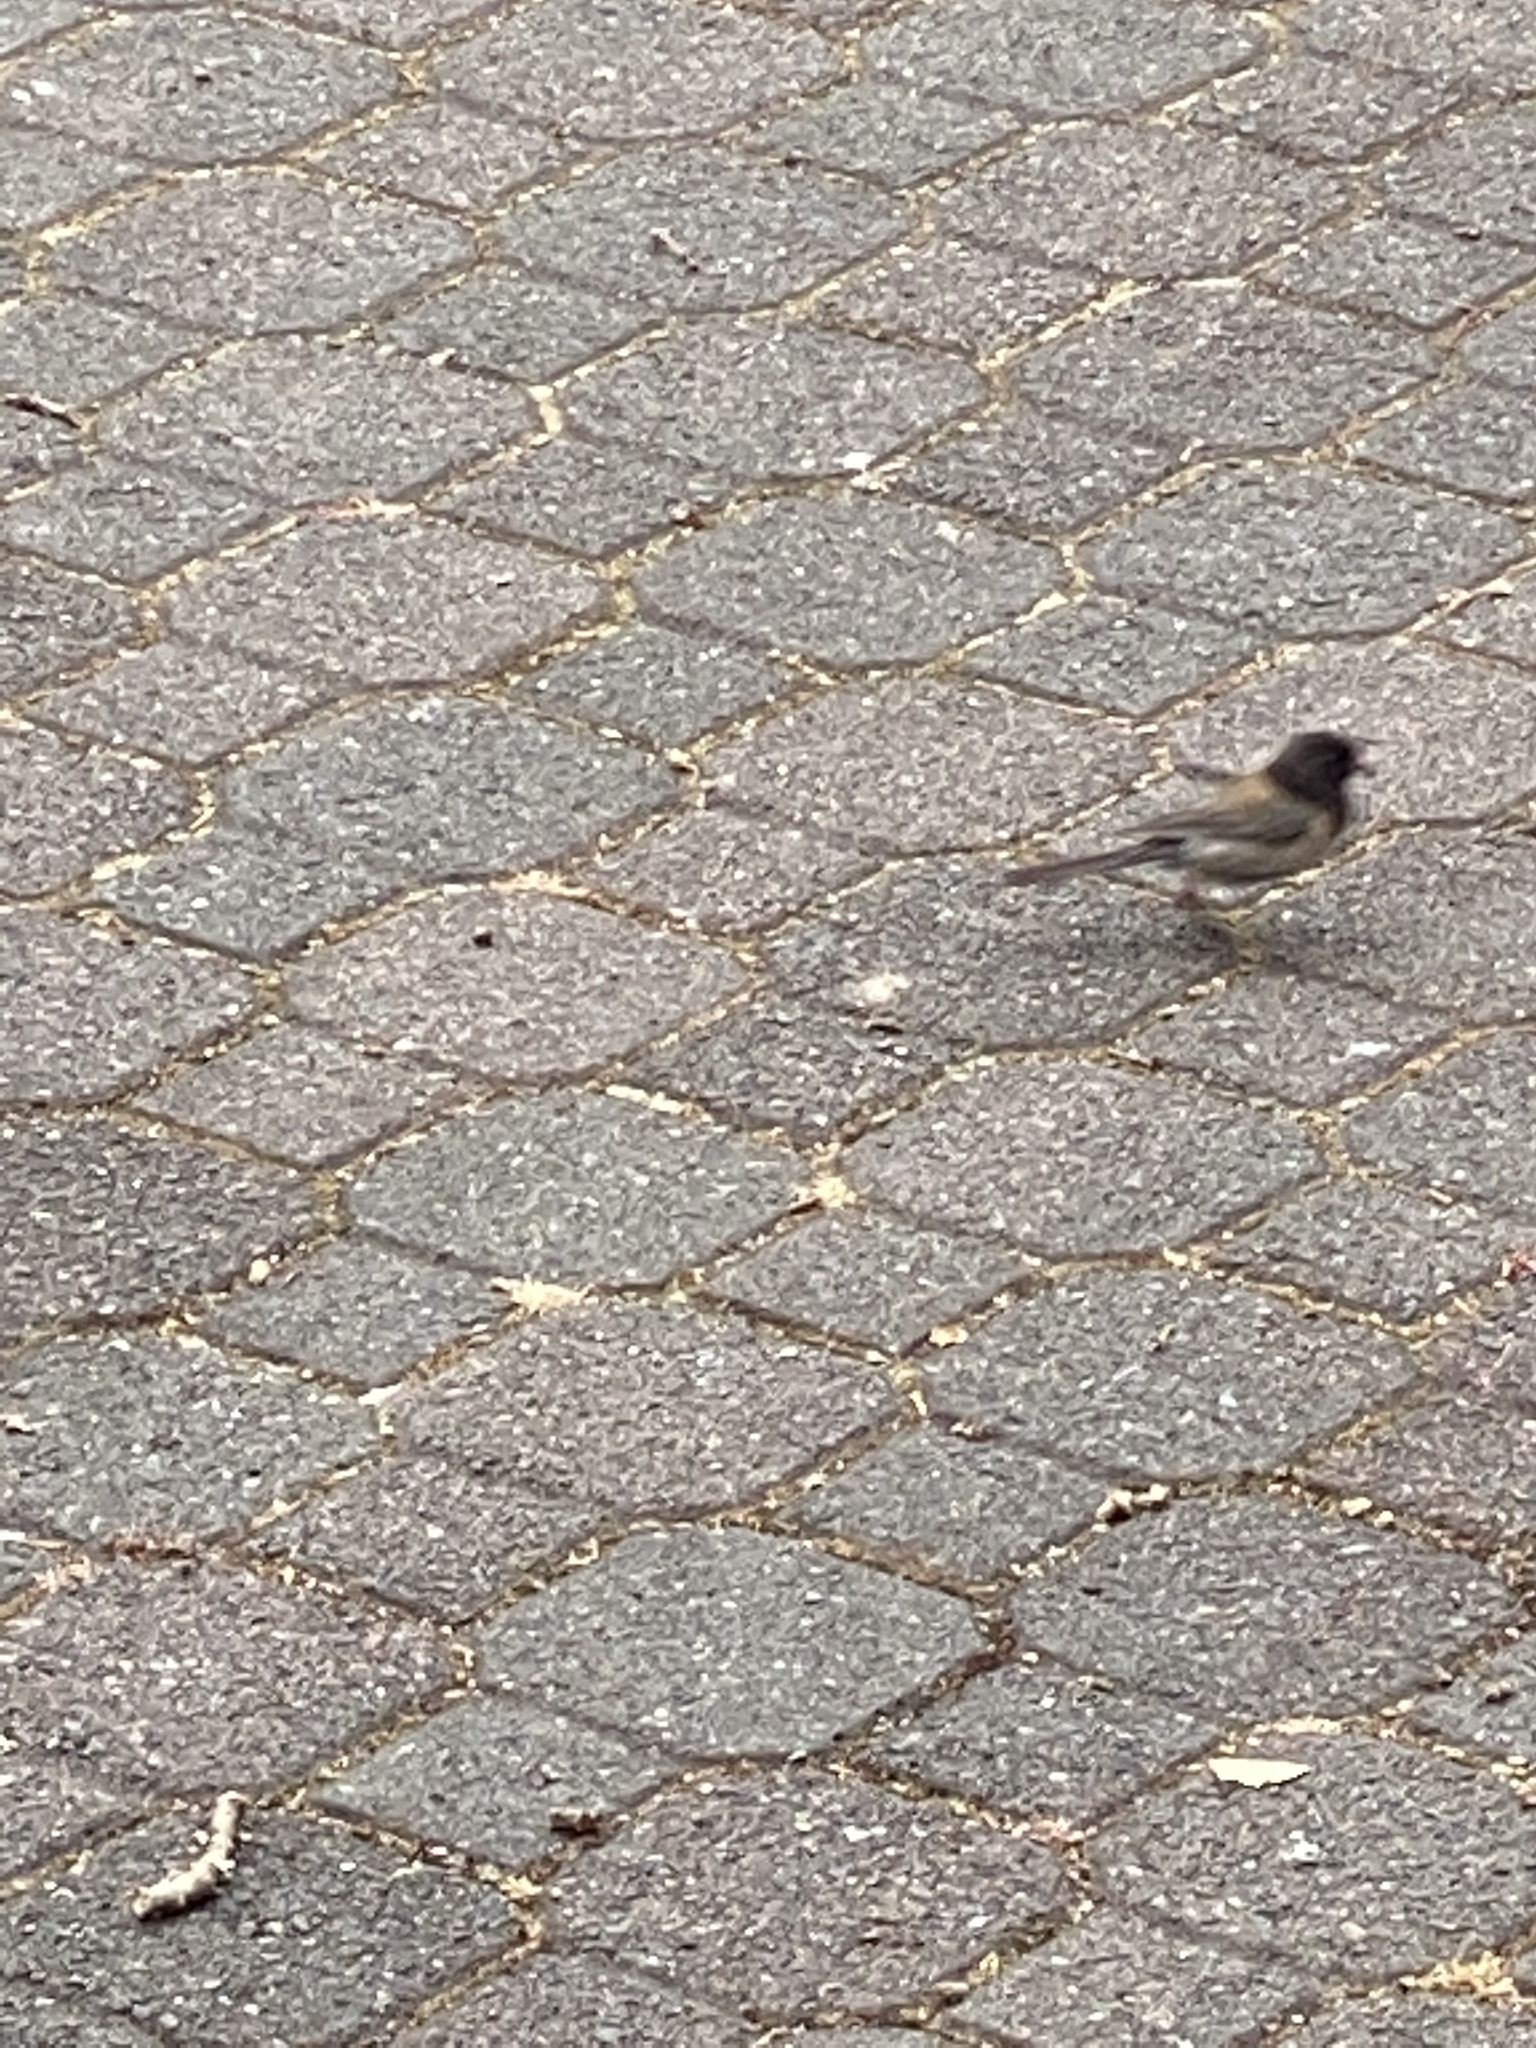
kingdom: Animalia
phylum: Chordata
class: Aves
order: Passeriformes
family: Passerellidae
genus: Junco
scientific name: Junco hyemalis
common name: Dark-eyed junco
